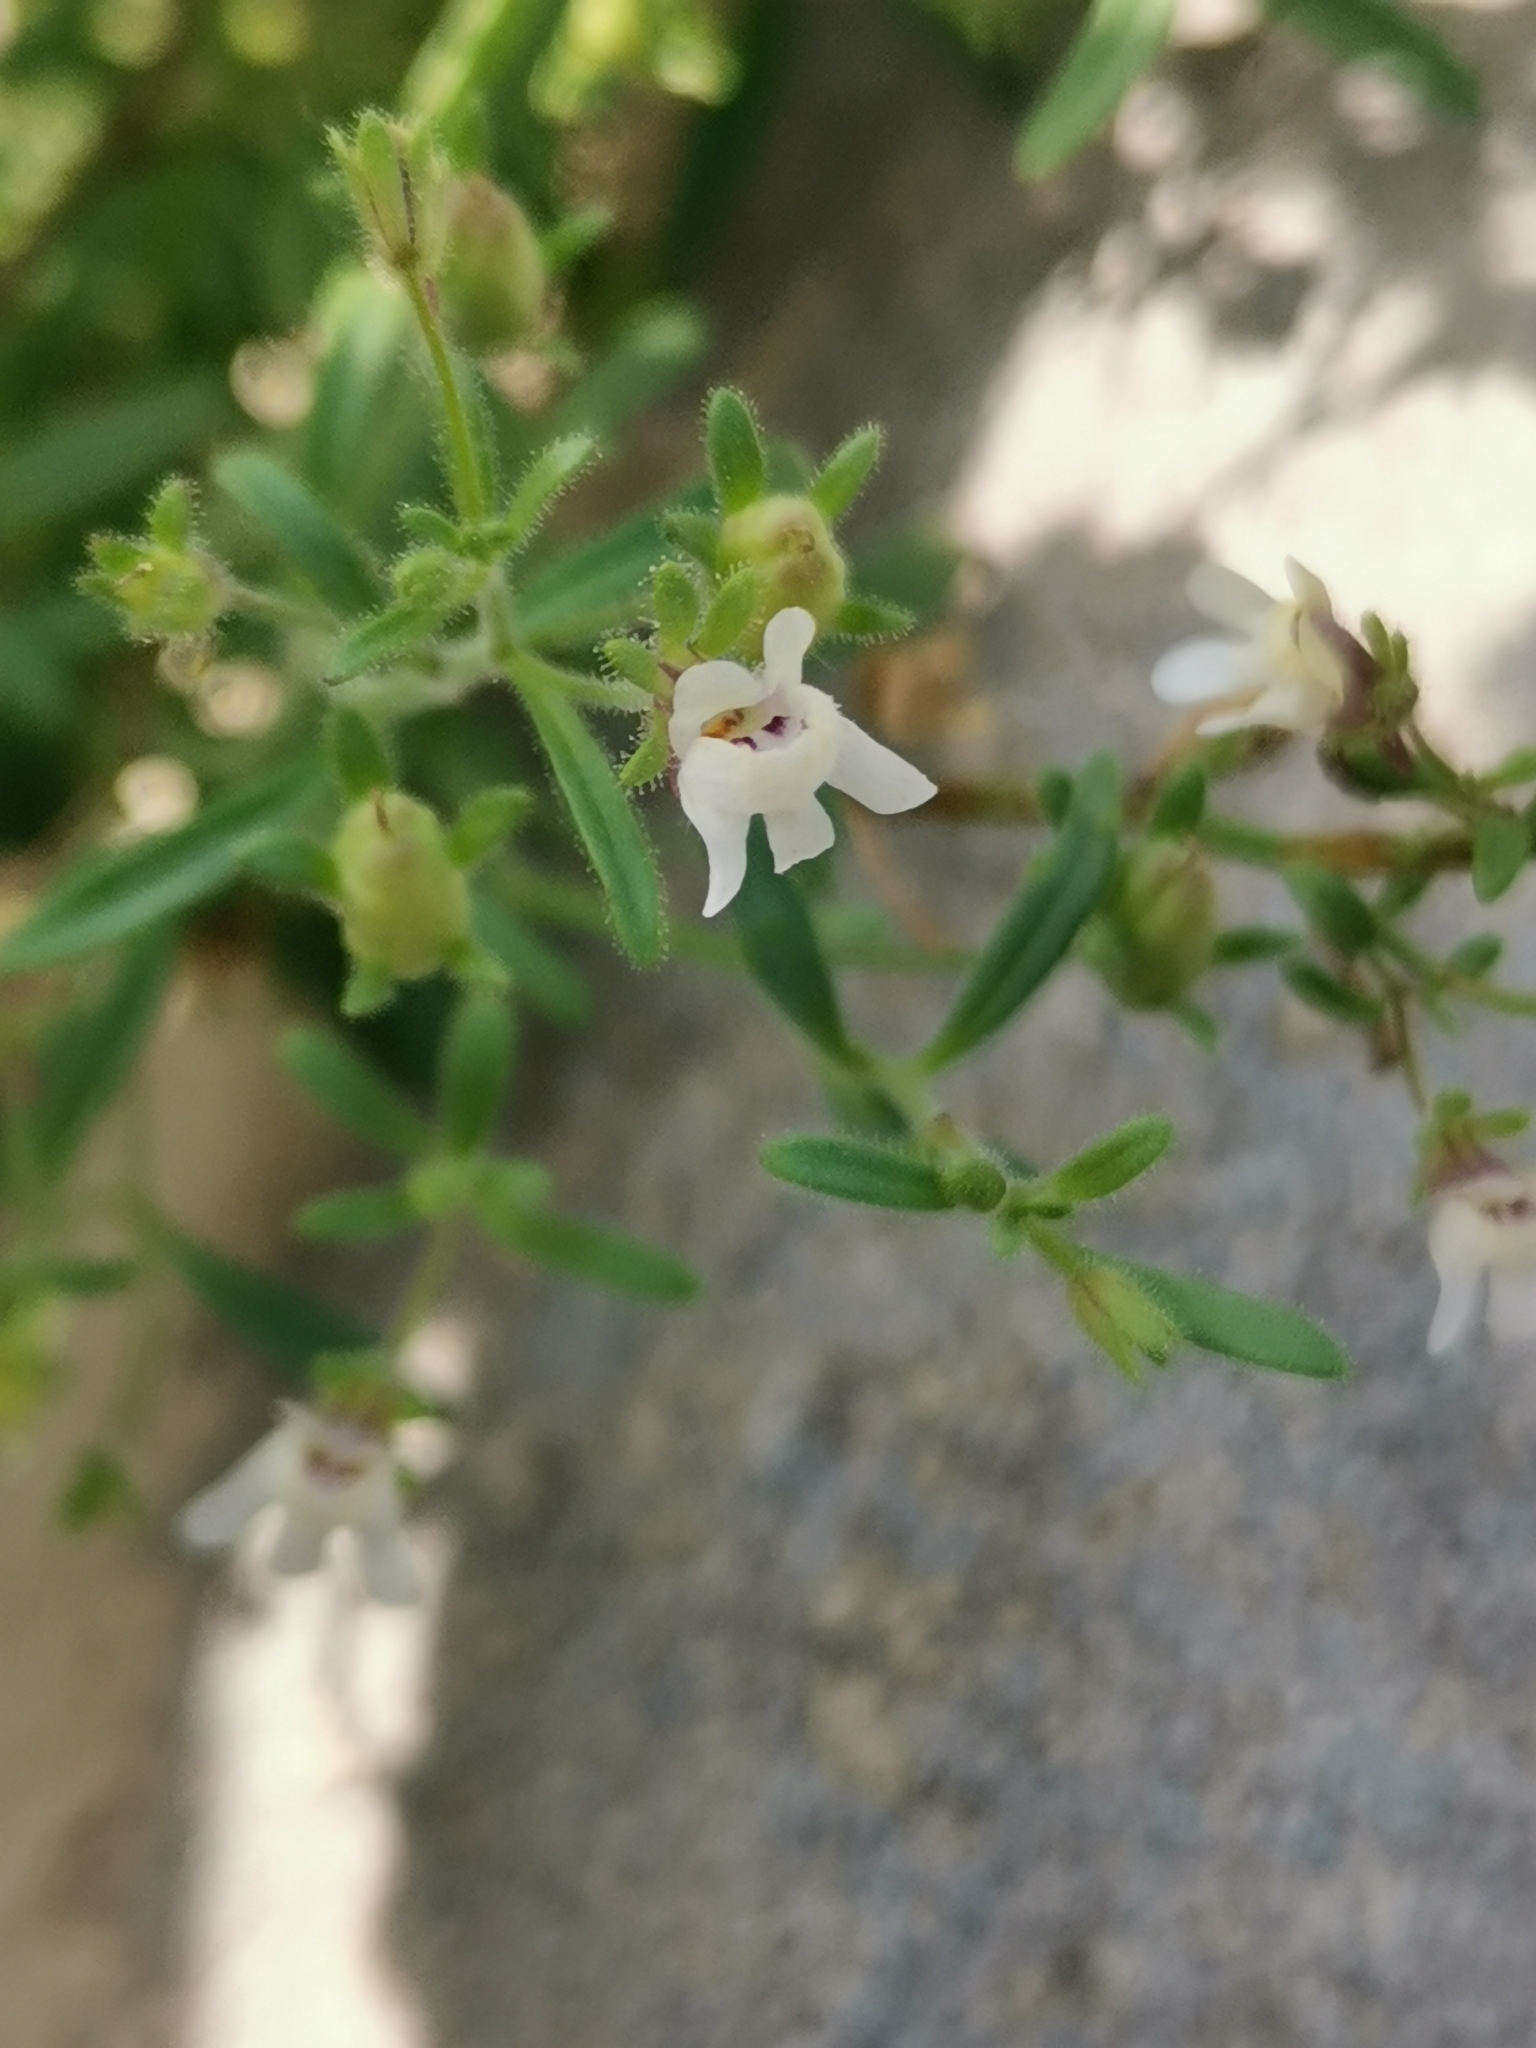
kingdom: Plantae
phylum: Tracheophyta
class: Magnoliopsida
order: Lamiales
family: Plantaginaceae
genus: Chaenorhinum
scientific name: Chaenorhinum minus
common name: Dwarf snapdragon
